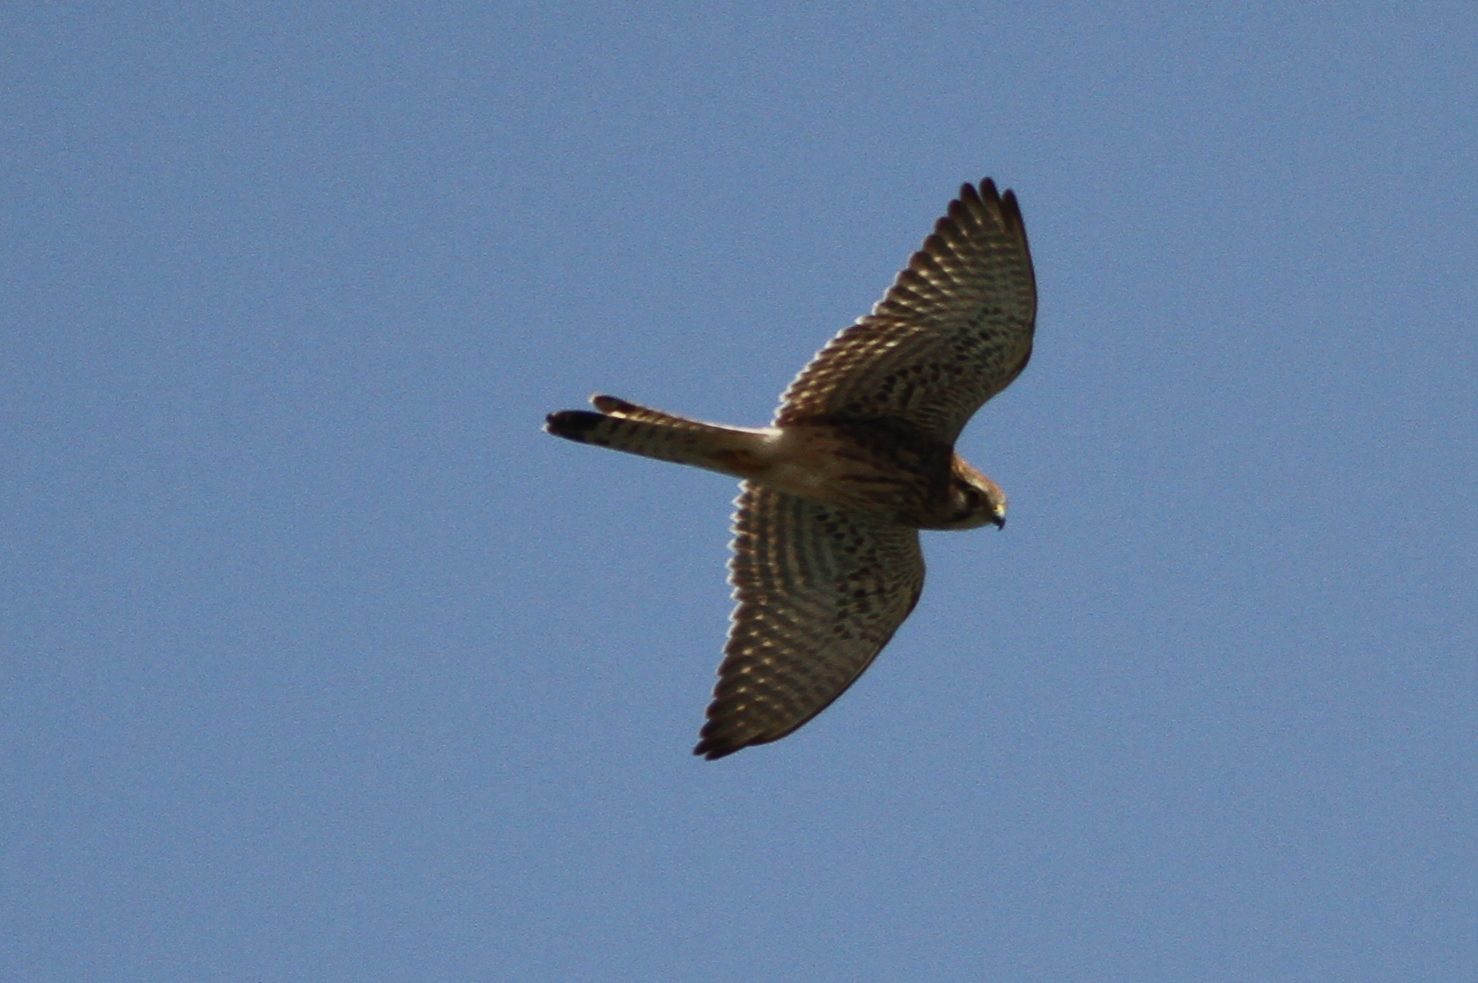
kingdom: Animalia
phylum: Chordata
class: Aves
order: Falconiformes
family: Falconidae
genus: Falco
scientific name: Falco tinnunculus
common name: Common kestrel
